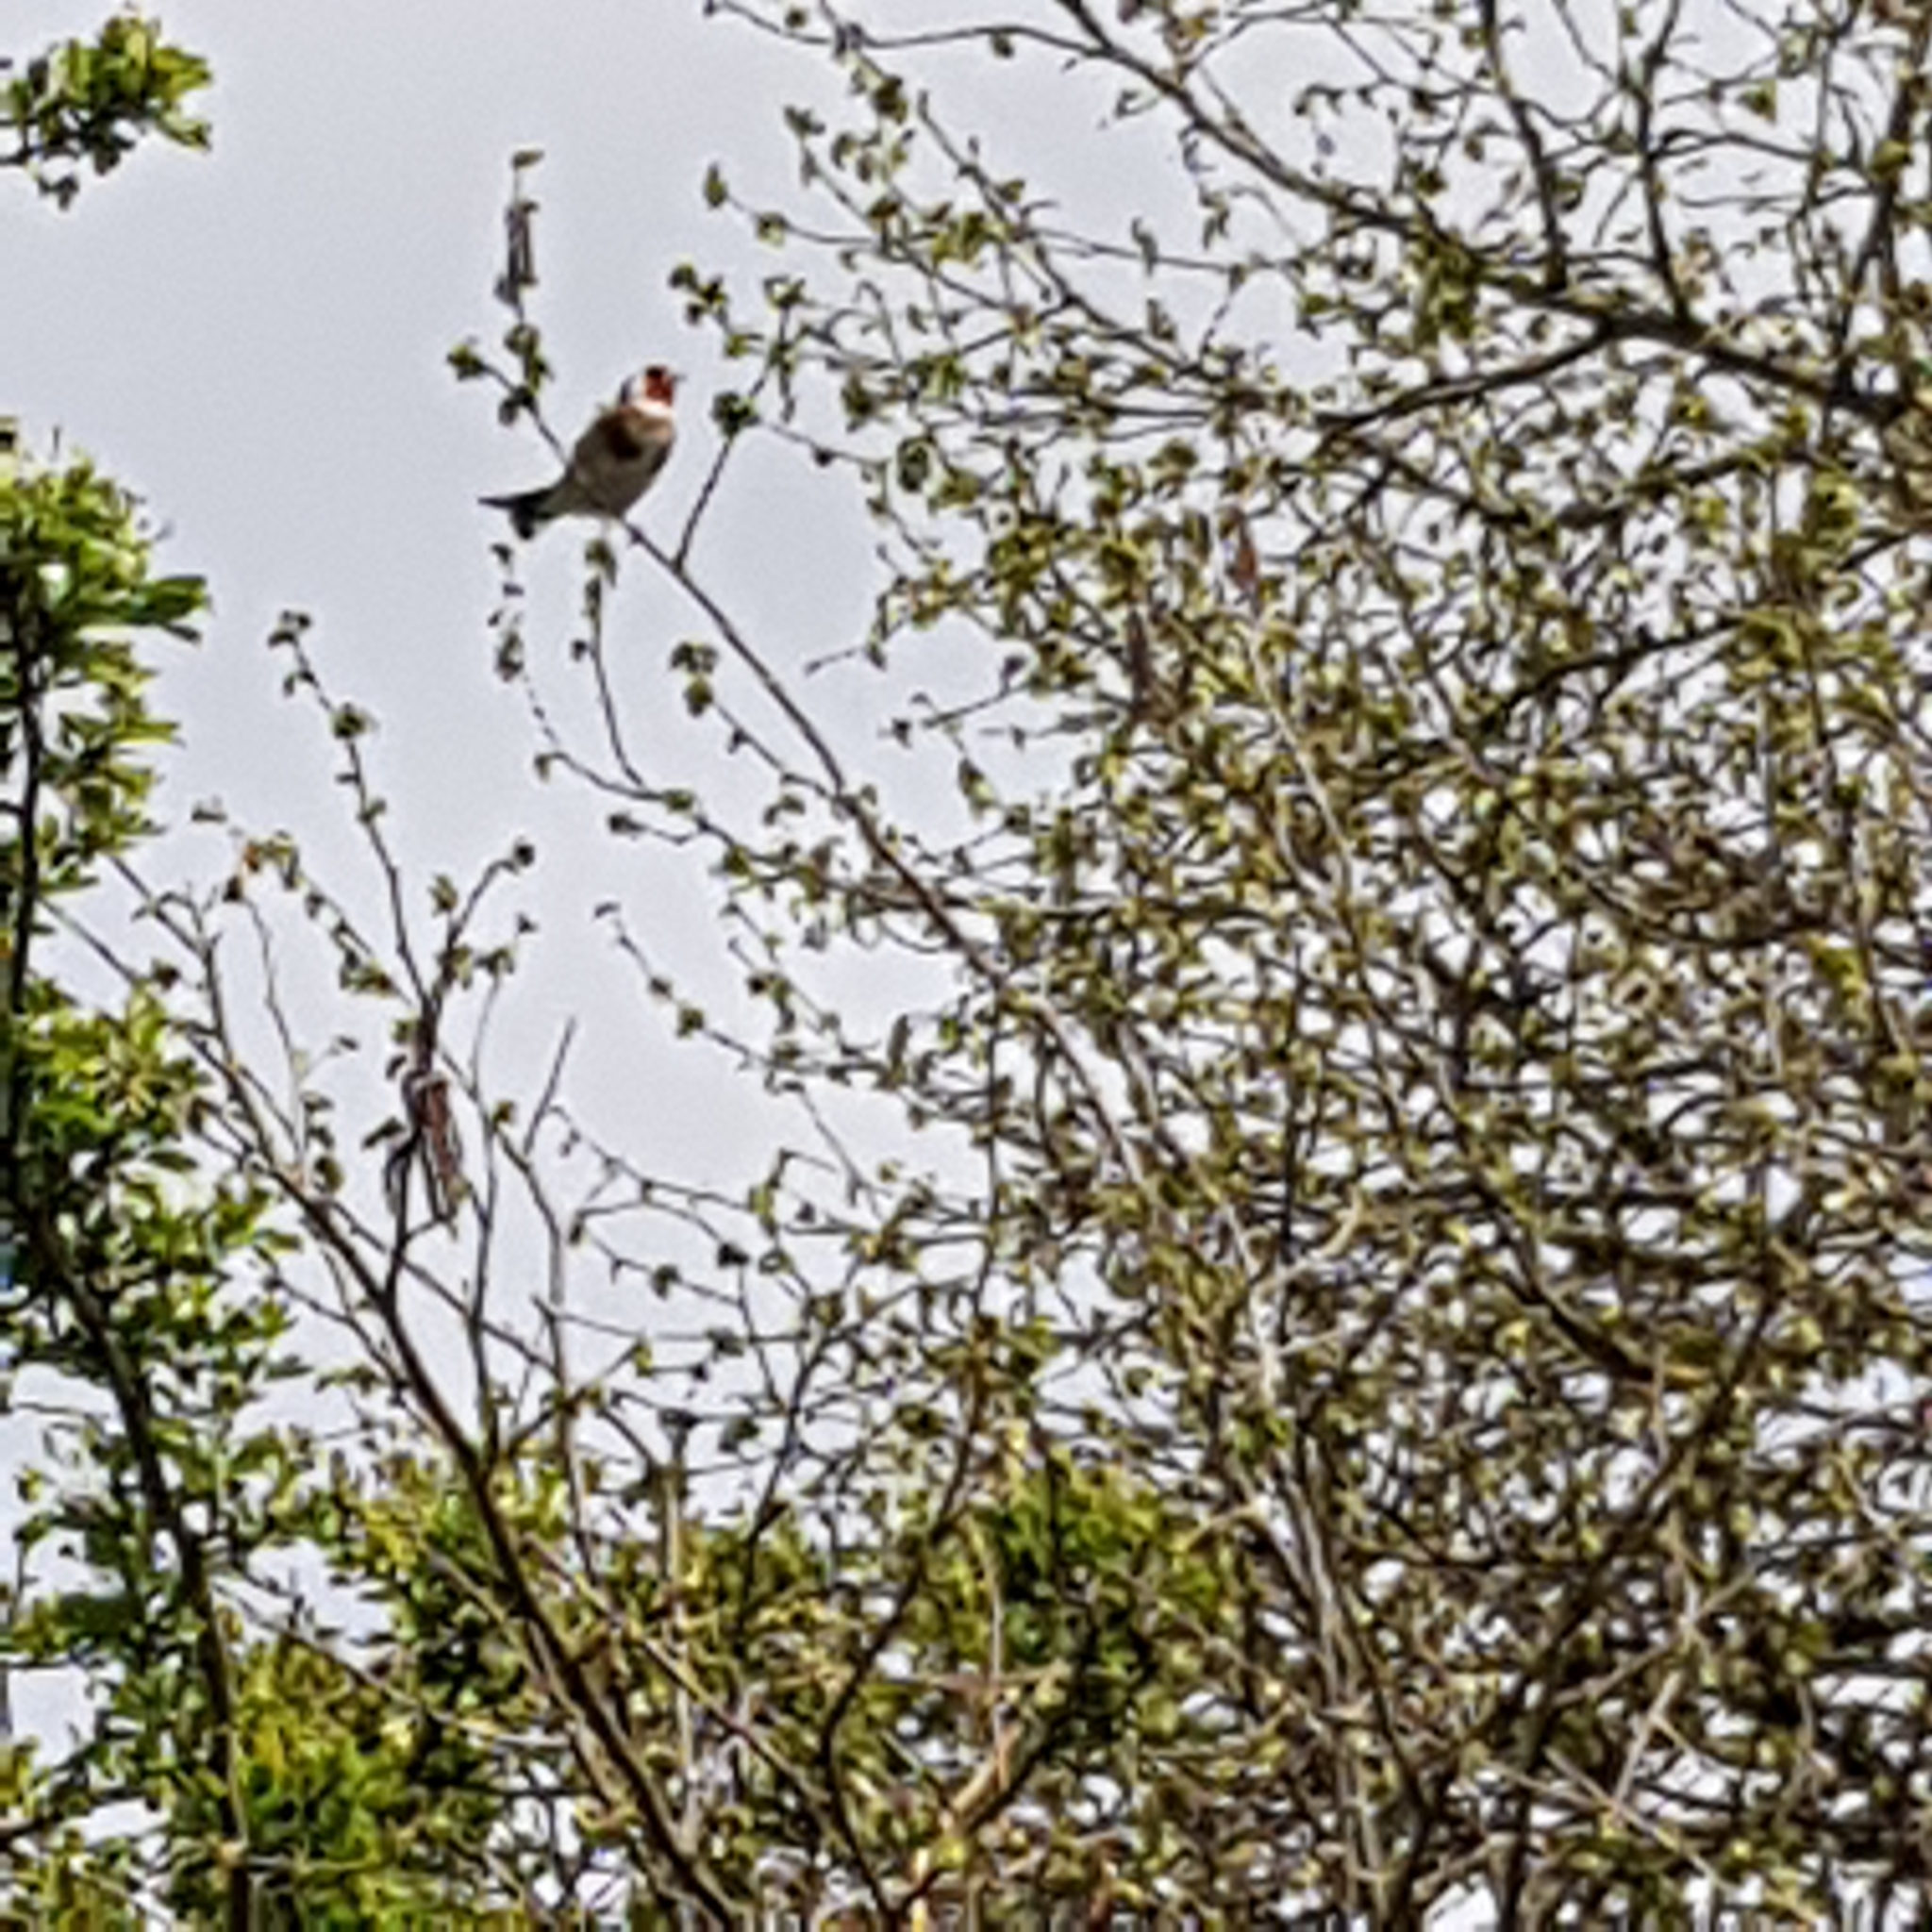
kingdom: Animalia
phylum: Chordata
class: Aves
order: Passeriformes
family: Fringillidae
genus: Carduelis
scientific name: Carduelis carduelis
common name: European goldfinch
